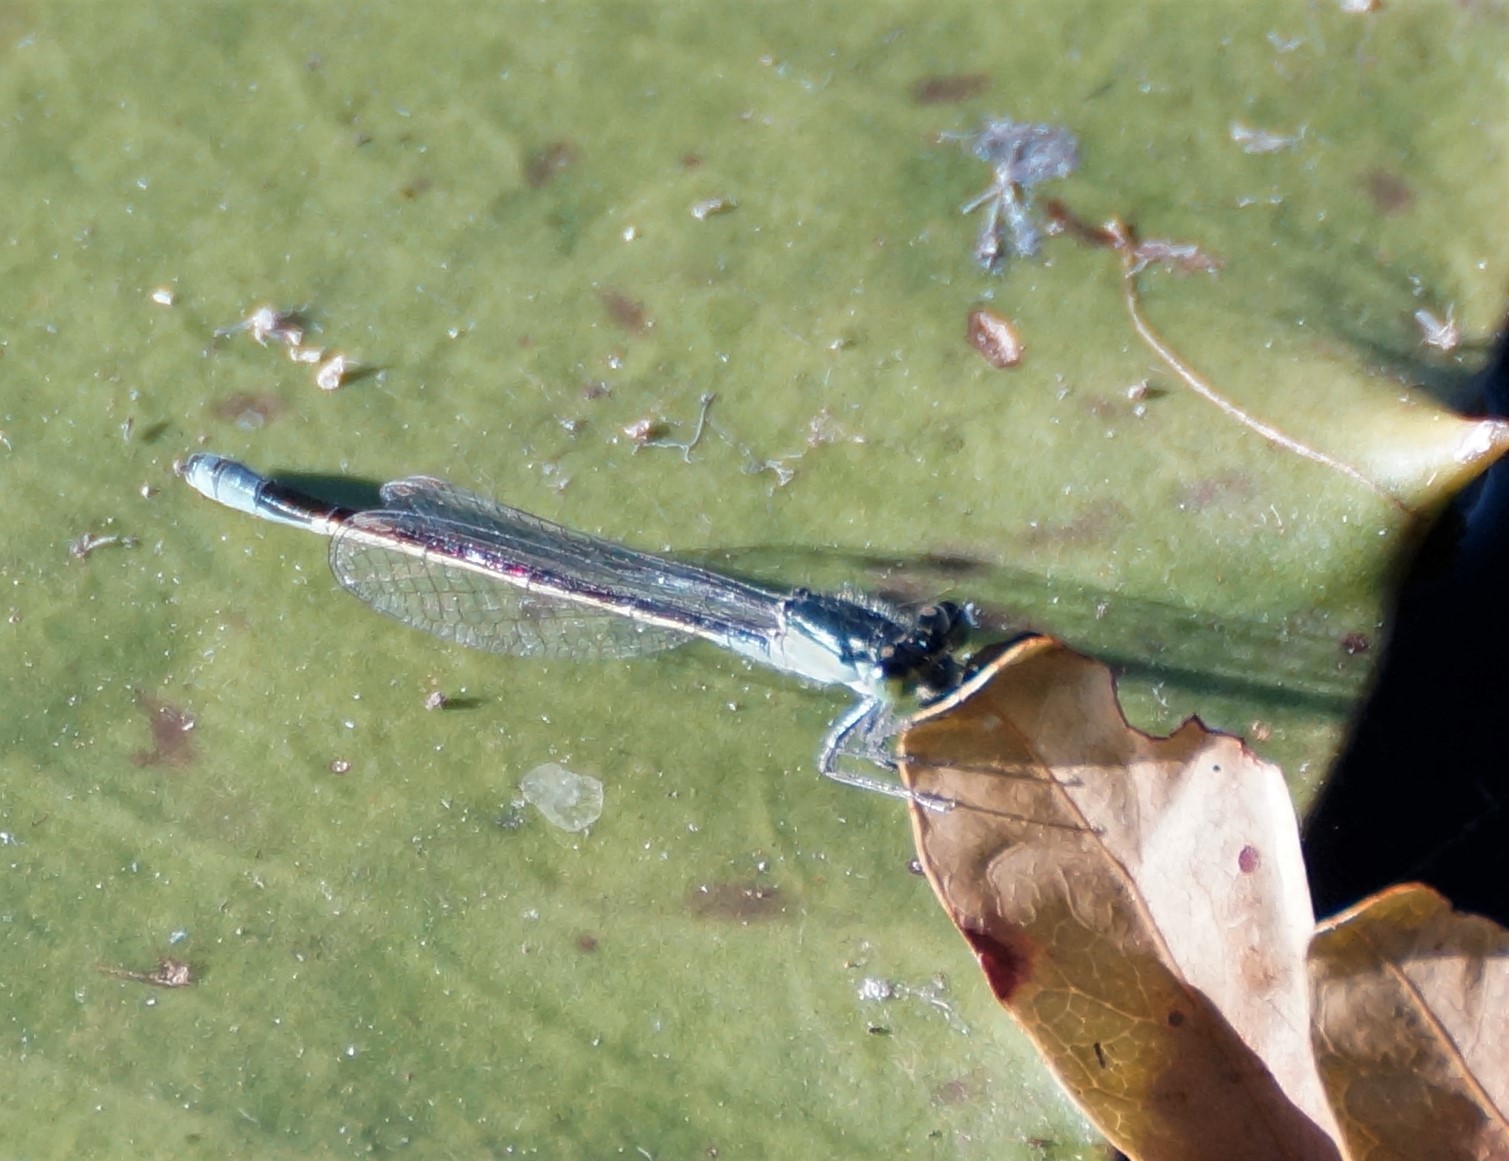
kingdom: Animalia
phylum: Arthropoda
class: Insecta
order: Odonata
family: Coenagrionidae
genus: Ischnura
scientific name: Ischnura heterosticta
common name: Common bluetail
